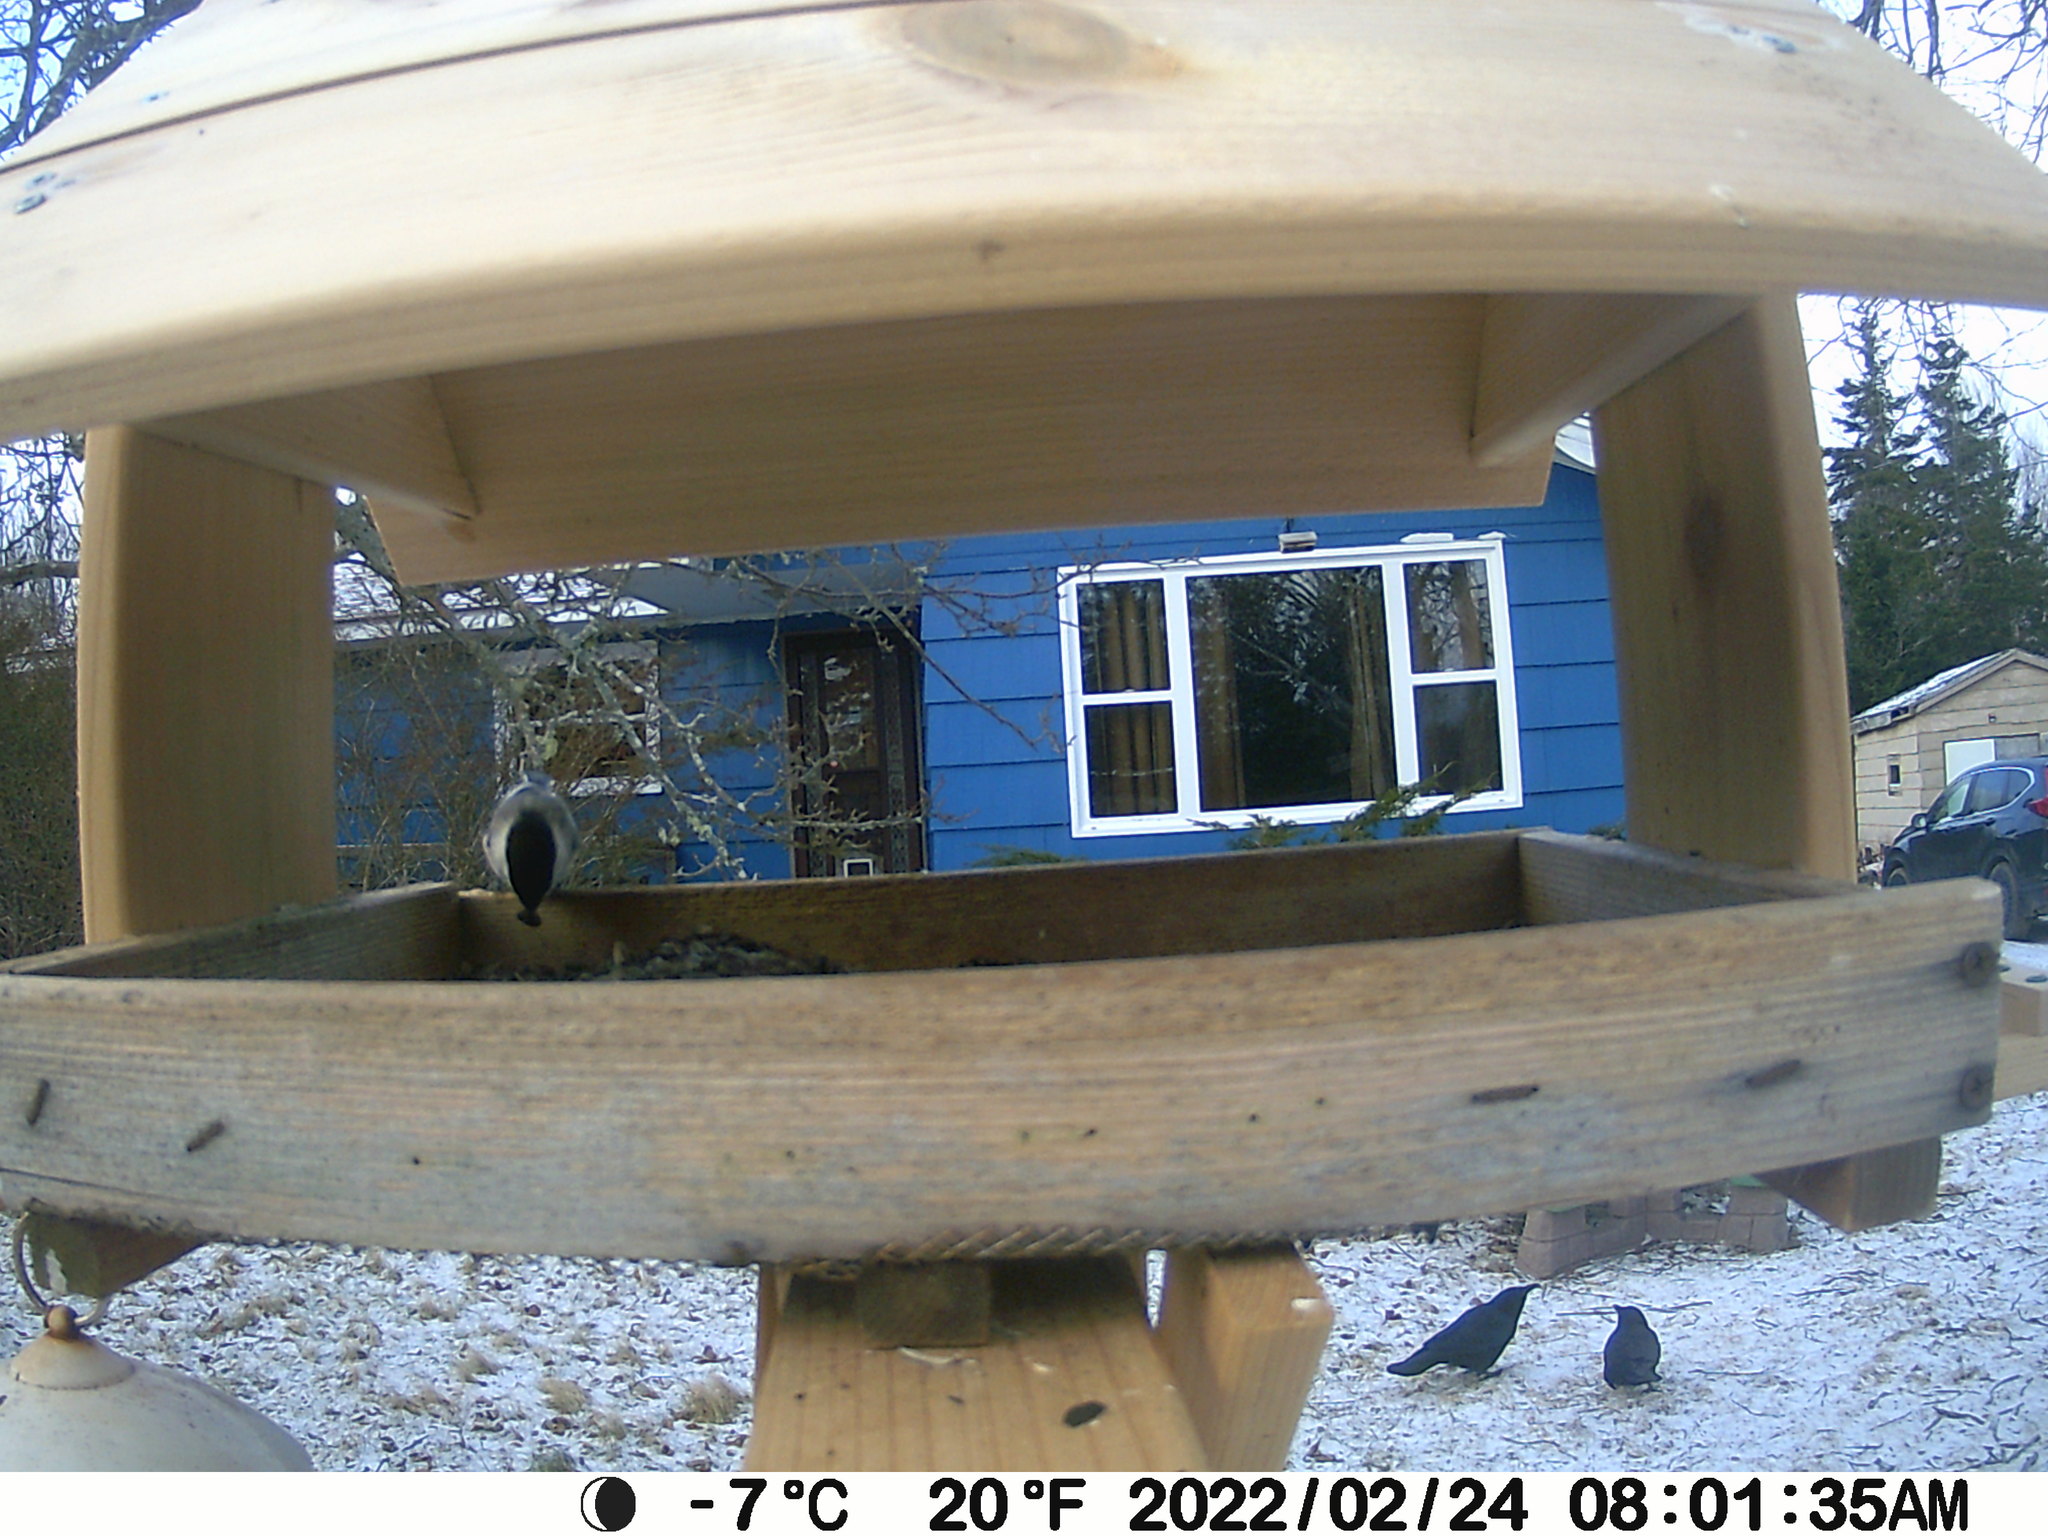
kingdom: Animalia
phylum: Chordata
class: Aves
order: Passeriformes
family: Paridae
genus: Poecile
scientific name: Poecile atricapillus
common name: Black-capped chickadee
